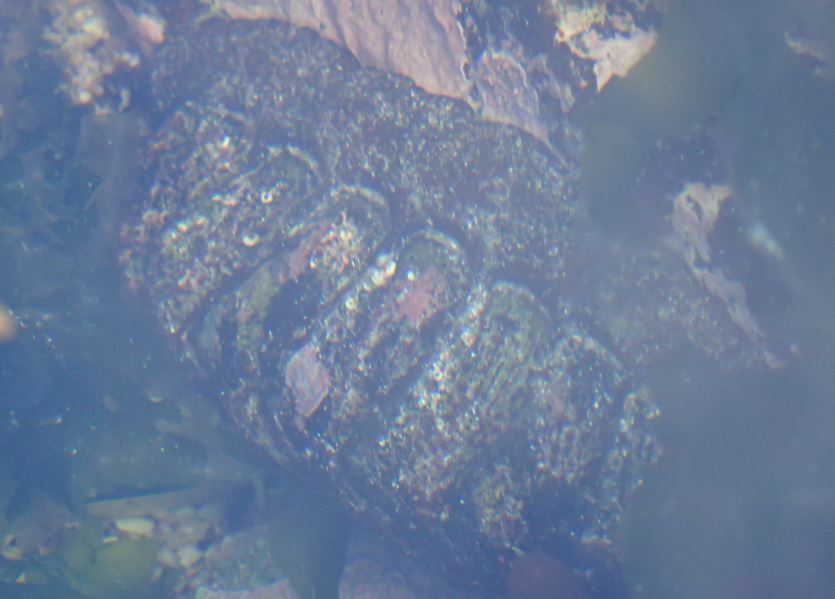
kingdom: Animalia
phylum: Mollusca
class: Polyplacophora
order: Callochitonida
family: Callochitonidae
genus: Eudoxochiton
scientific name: Eudoxochiton nobilis
